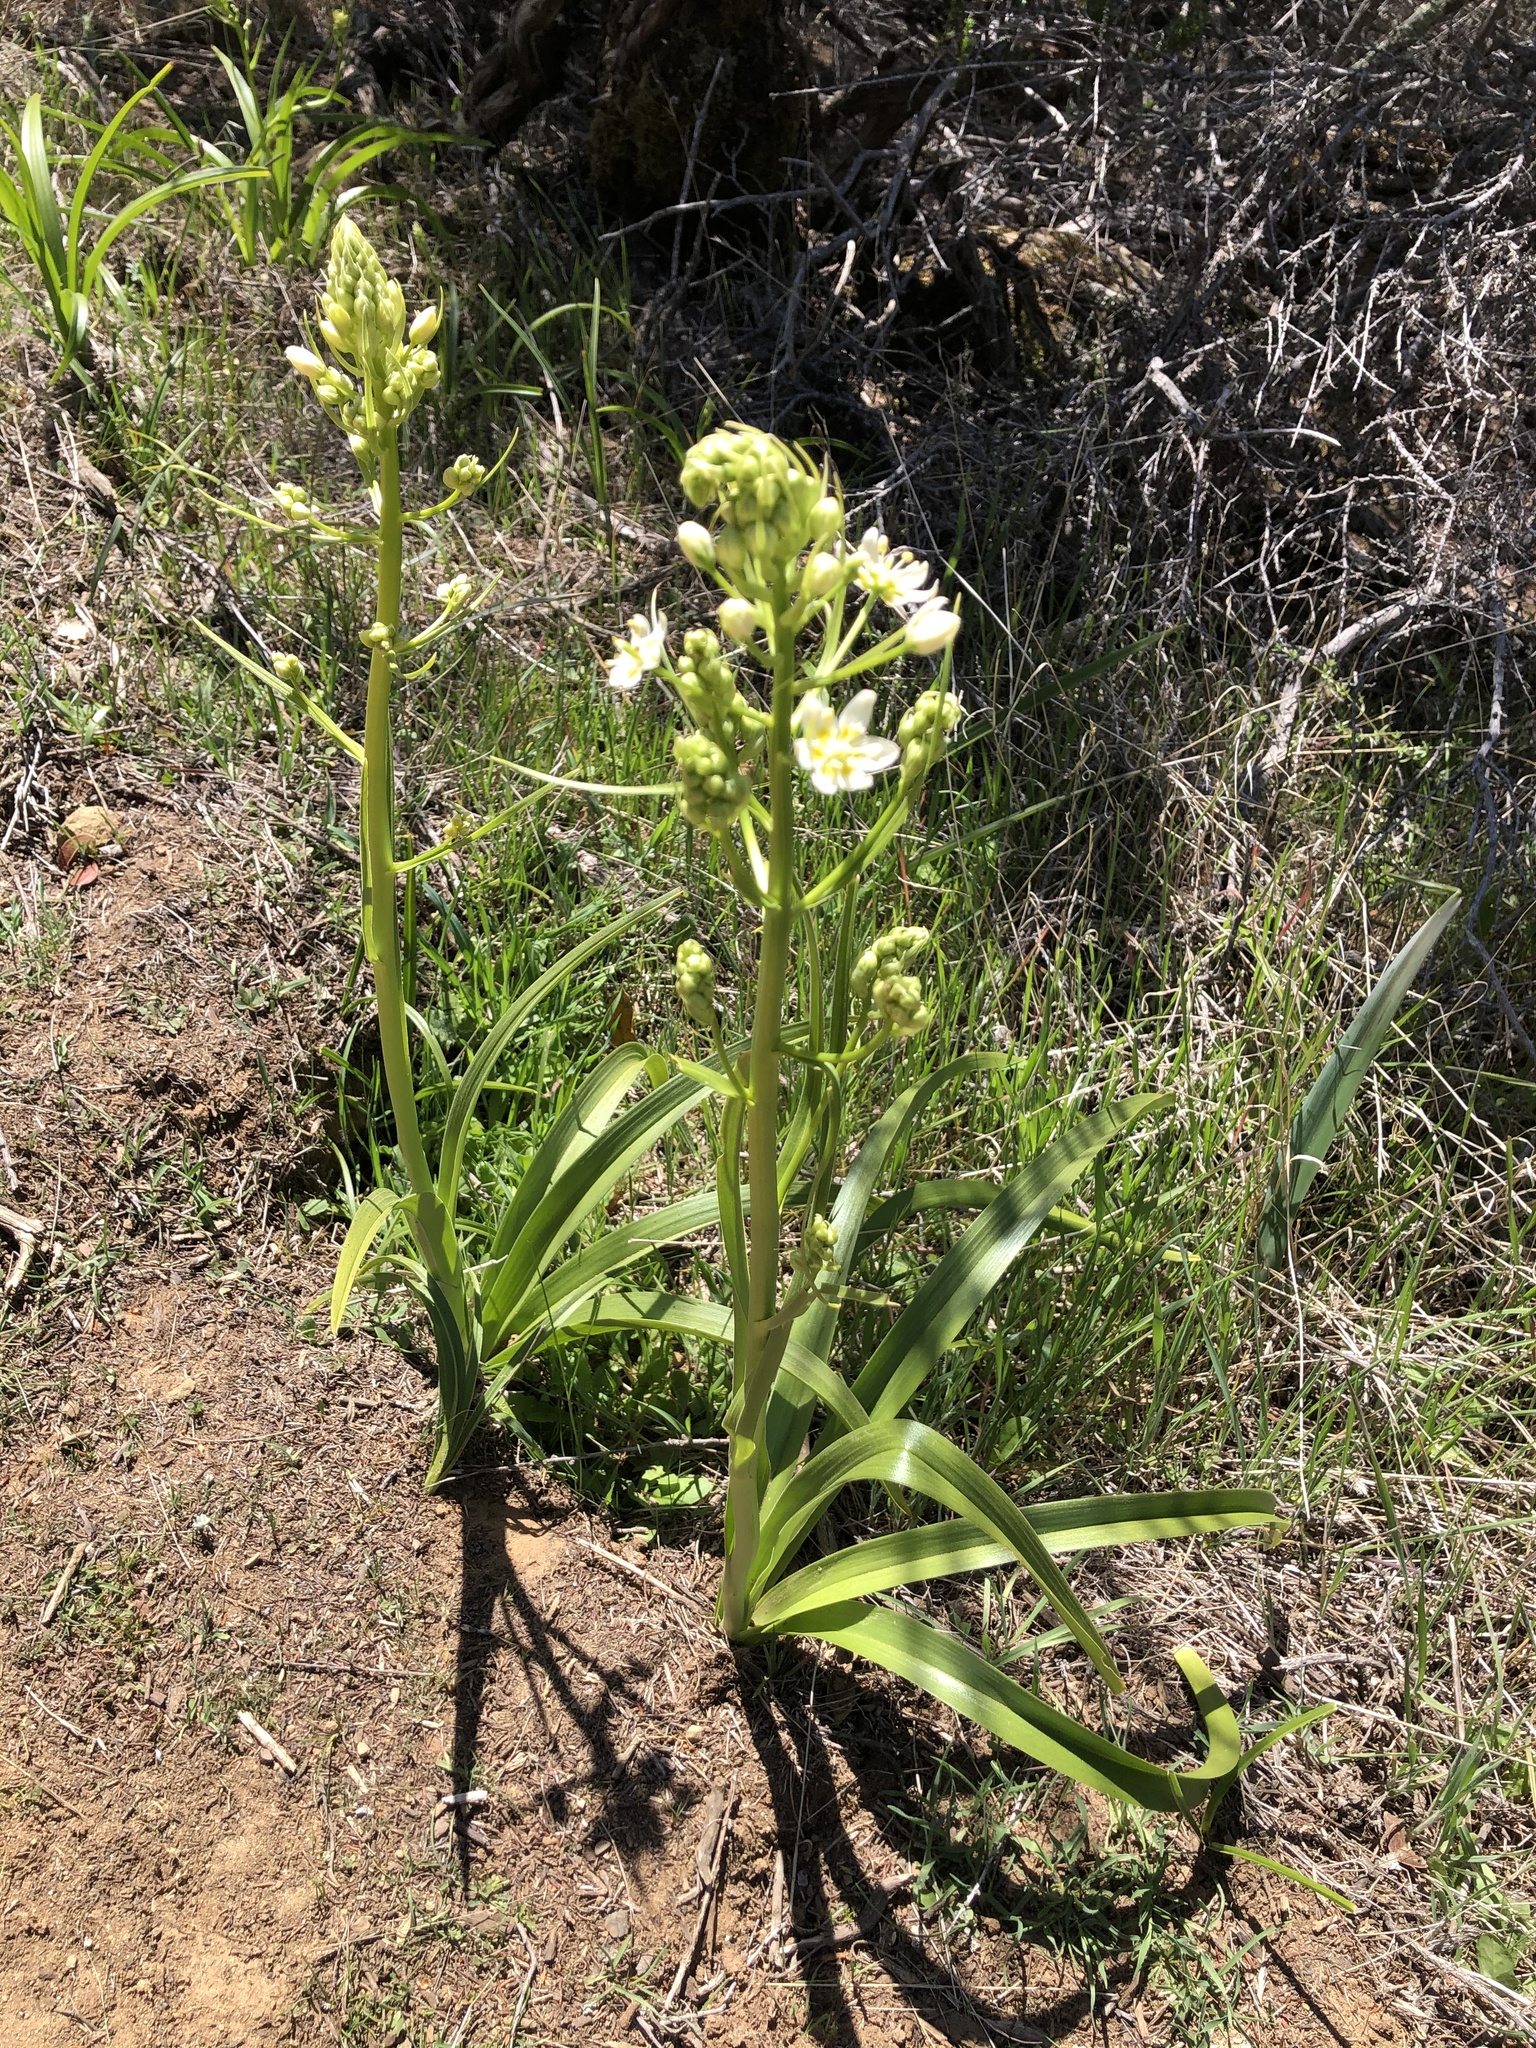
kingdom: Plantae
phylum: Tracheophyta
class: Liliopsida
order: Liliales
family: Melanthiaceae
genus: Toxicoscordion
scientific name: Toxicoscordion fremontii
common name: Fremont's death camas
